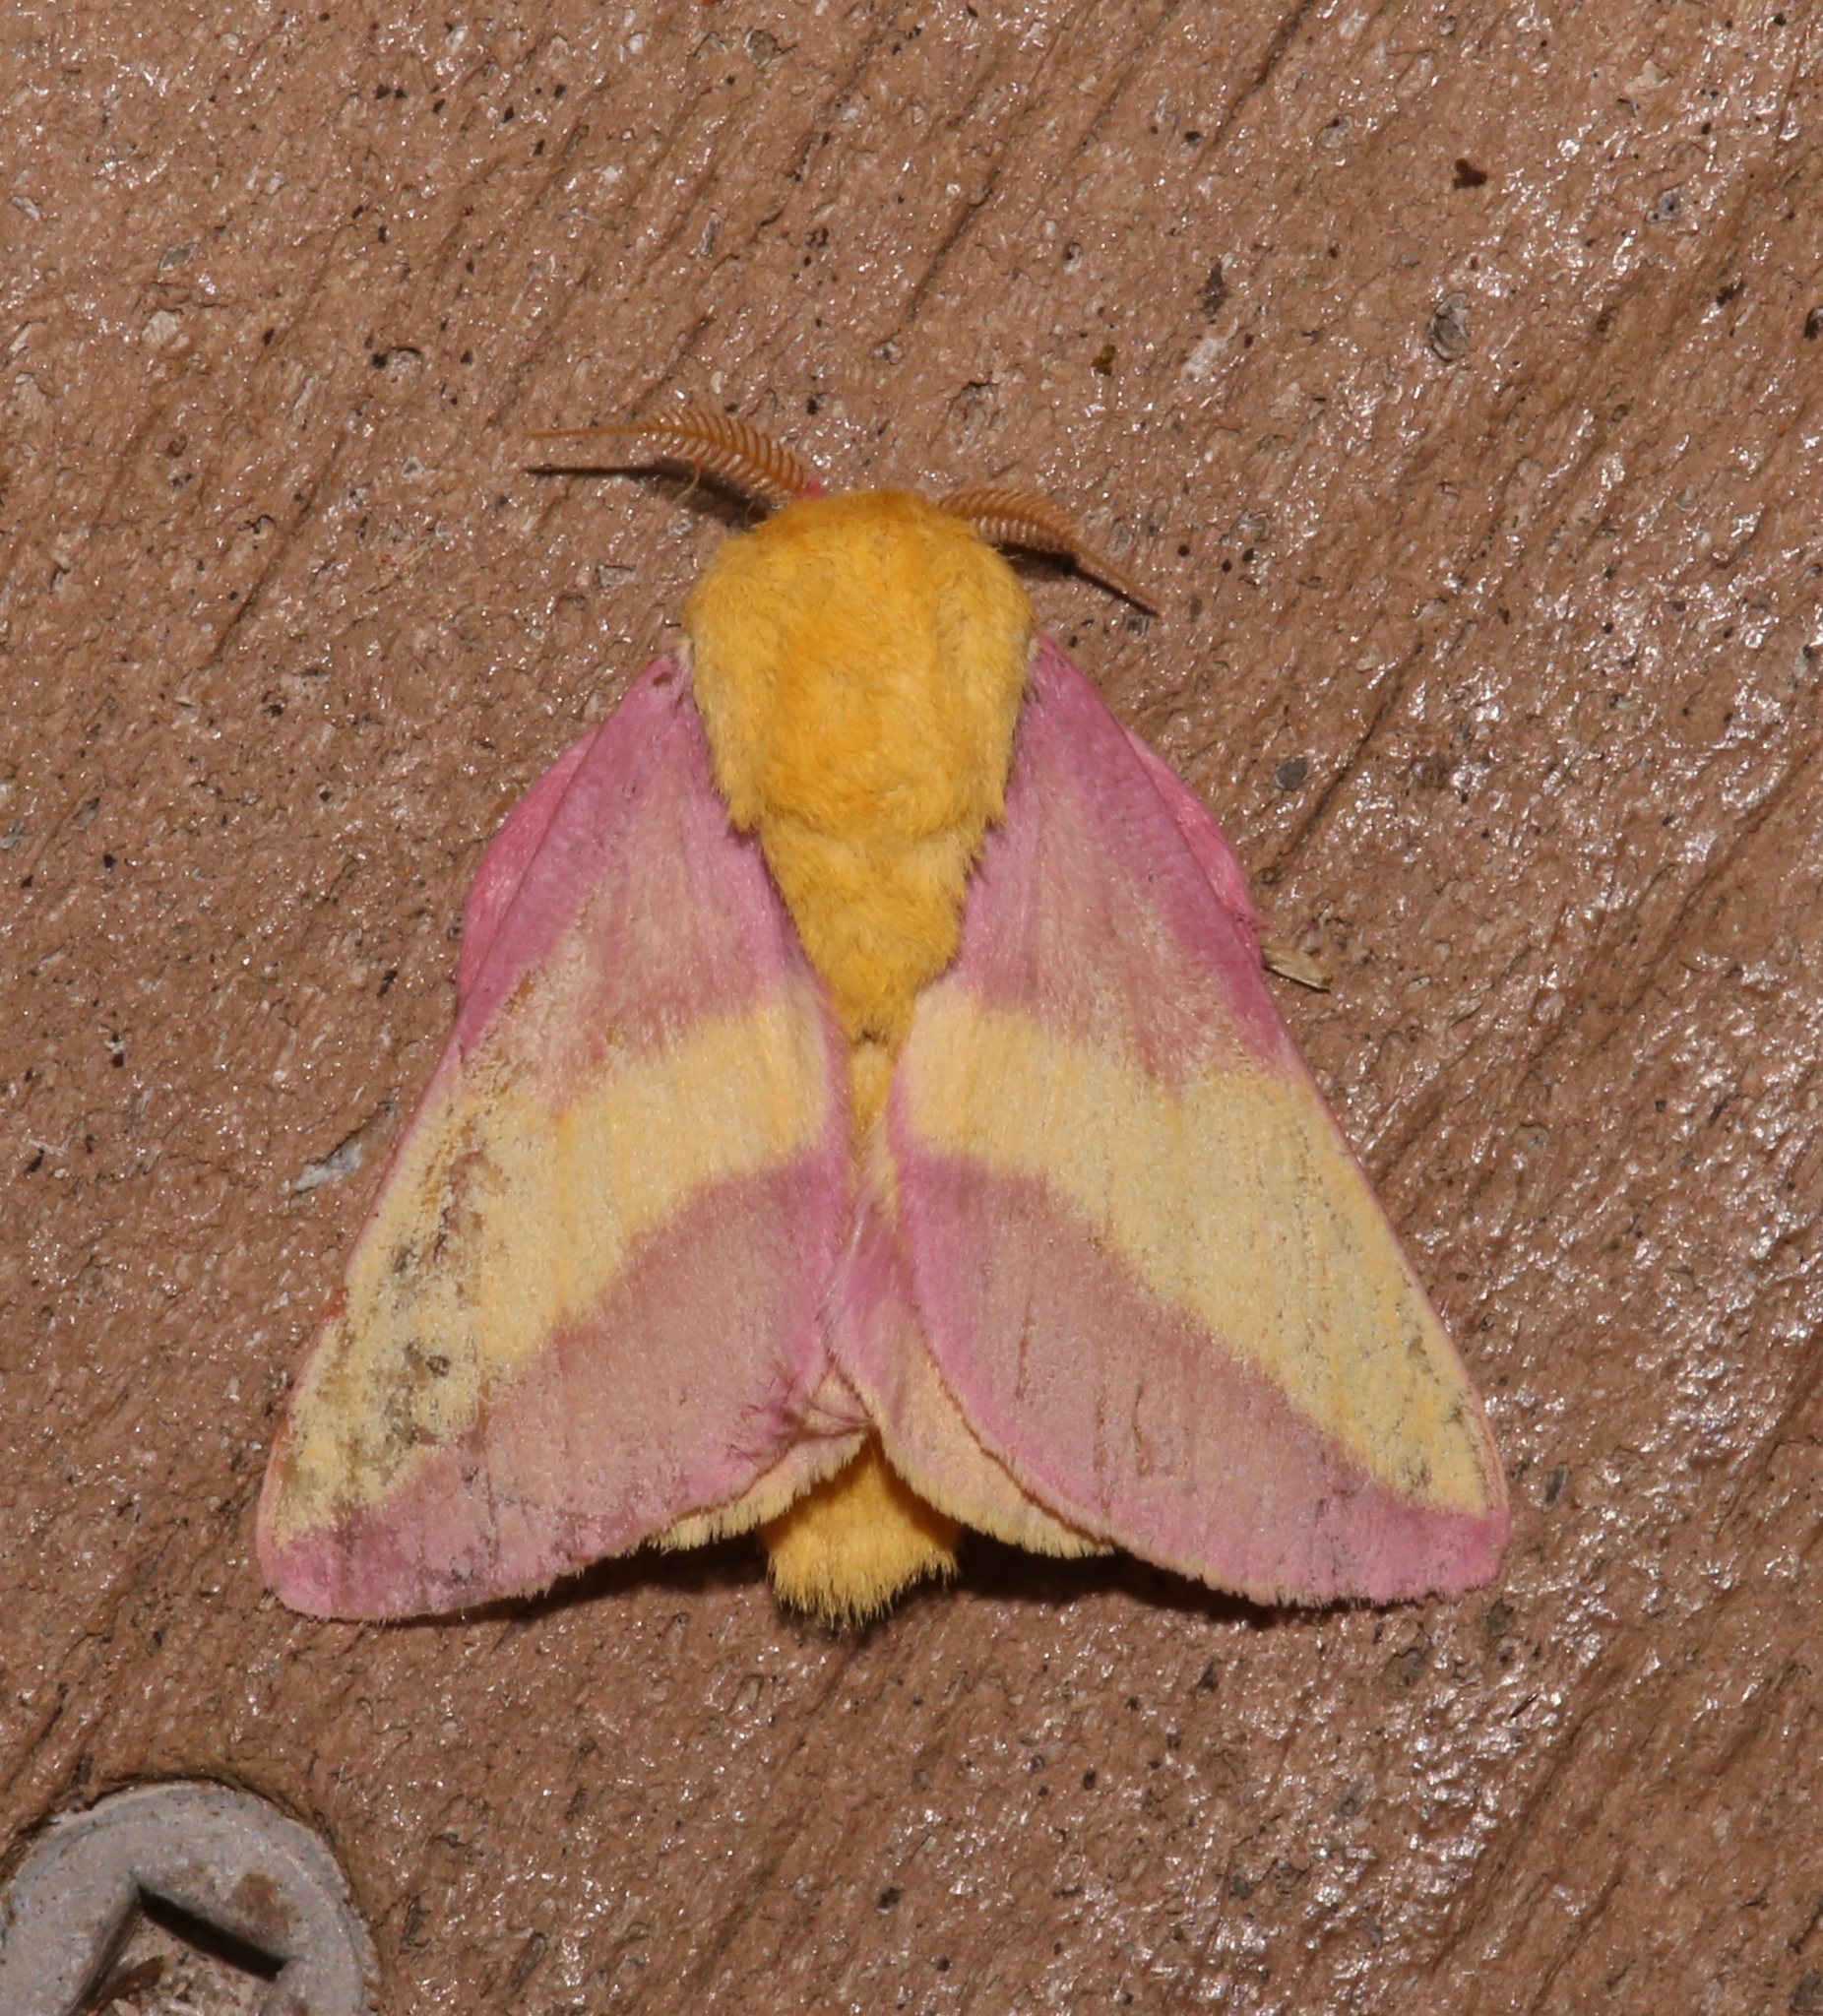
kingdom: Animalia
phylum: Arthropoda
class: Insecta
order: Lepidoptera
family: Saturniidae
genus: Dryocampa
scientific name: Dryocampa rubicunda
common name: Rosy maple moth
